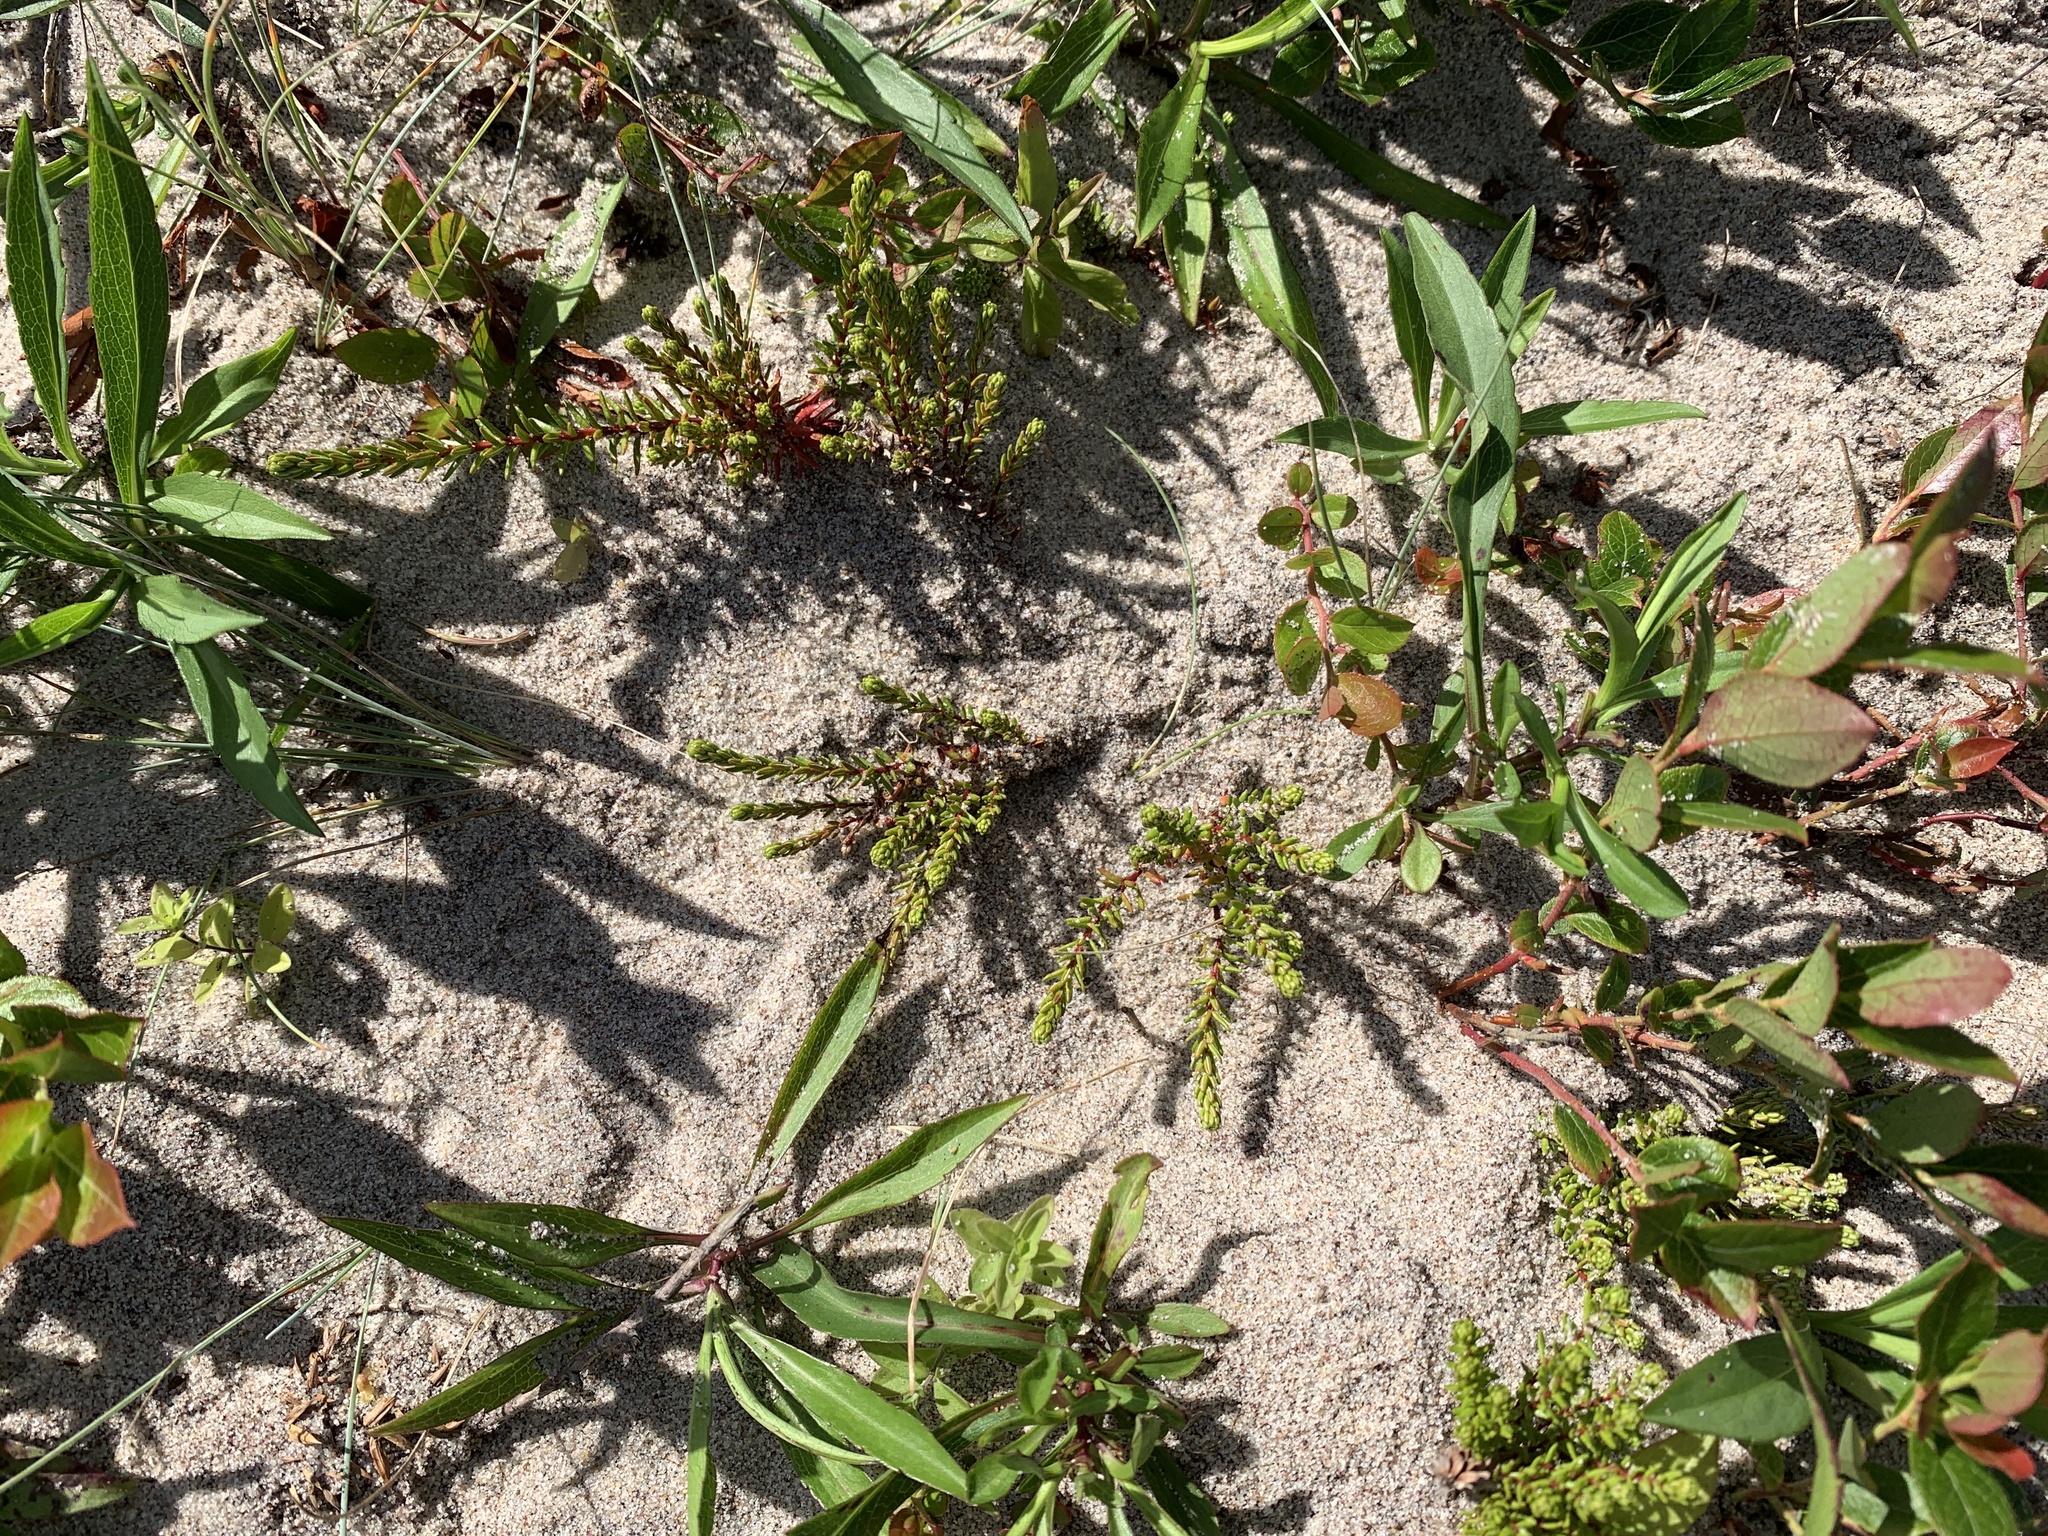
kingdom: Plantae
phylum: Tracheophyta
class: Magnoliopsida
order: Ericales
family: Ericaceae
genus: Empetrum
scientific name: Empetrum nigrum
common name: Black crowberry
